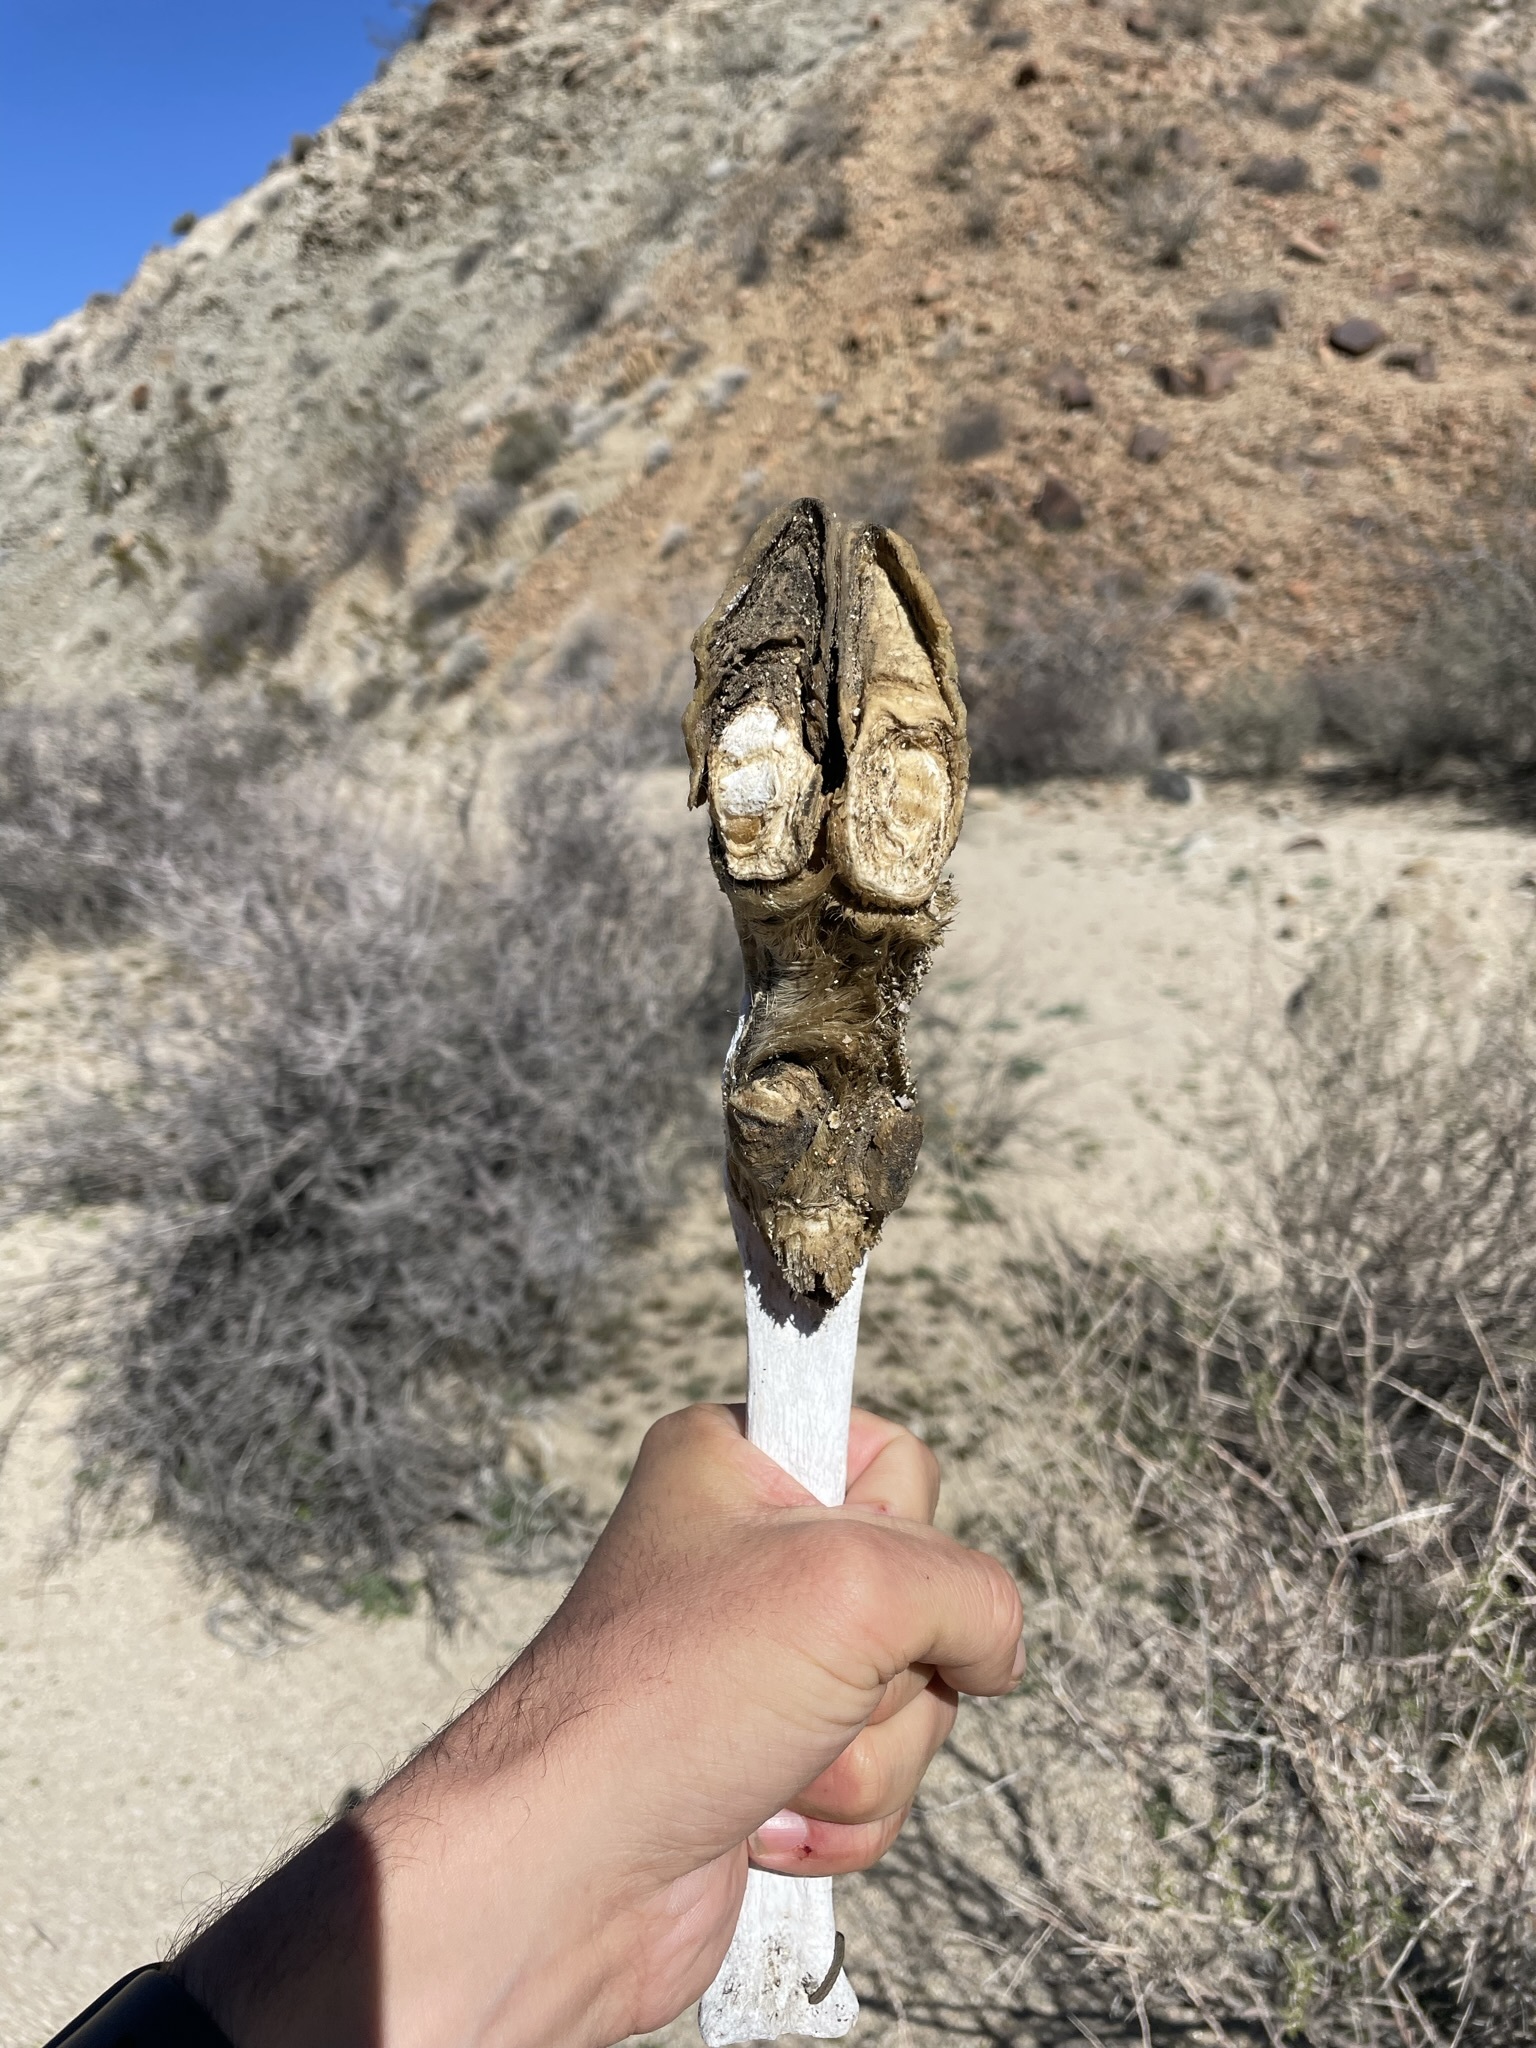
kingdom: Animalia
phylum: Chordata
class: Mammalia
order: Artiodactyla
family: Bovidae
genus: Ovis
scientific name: Ovis canadensis
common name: Bighorn sheep
